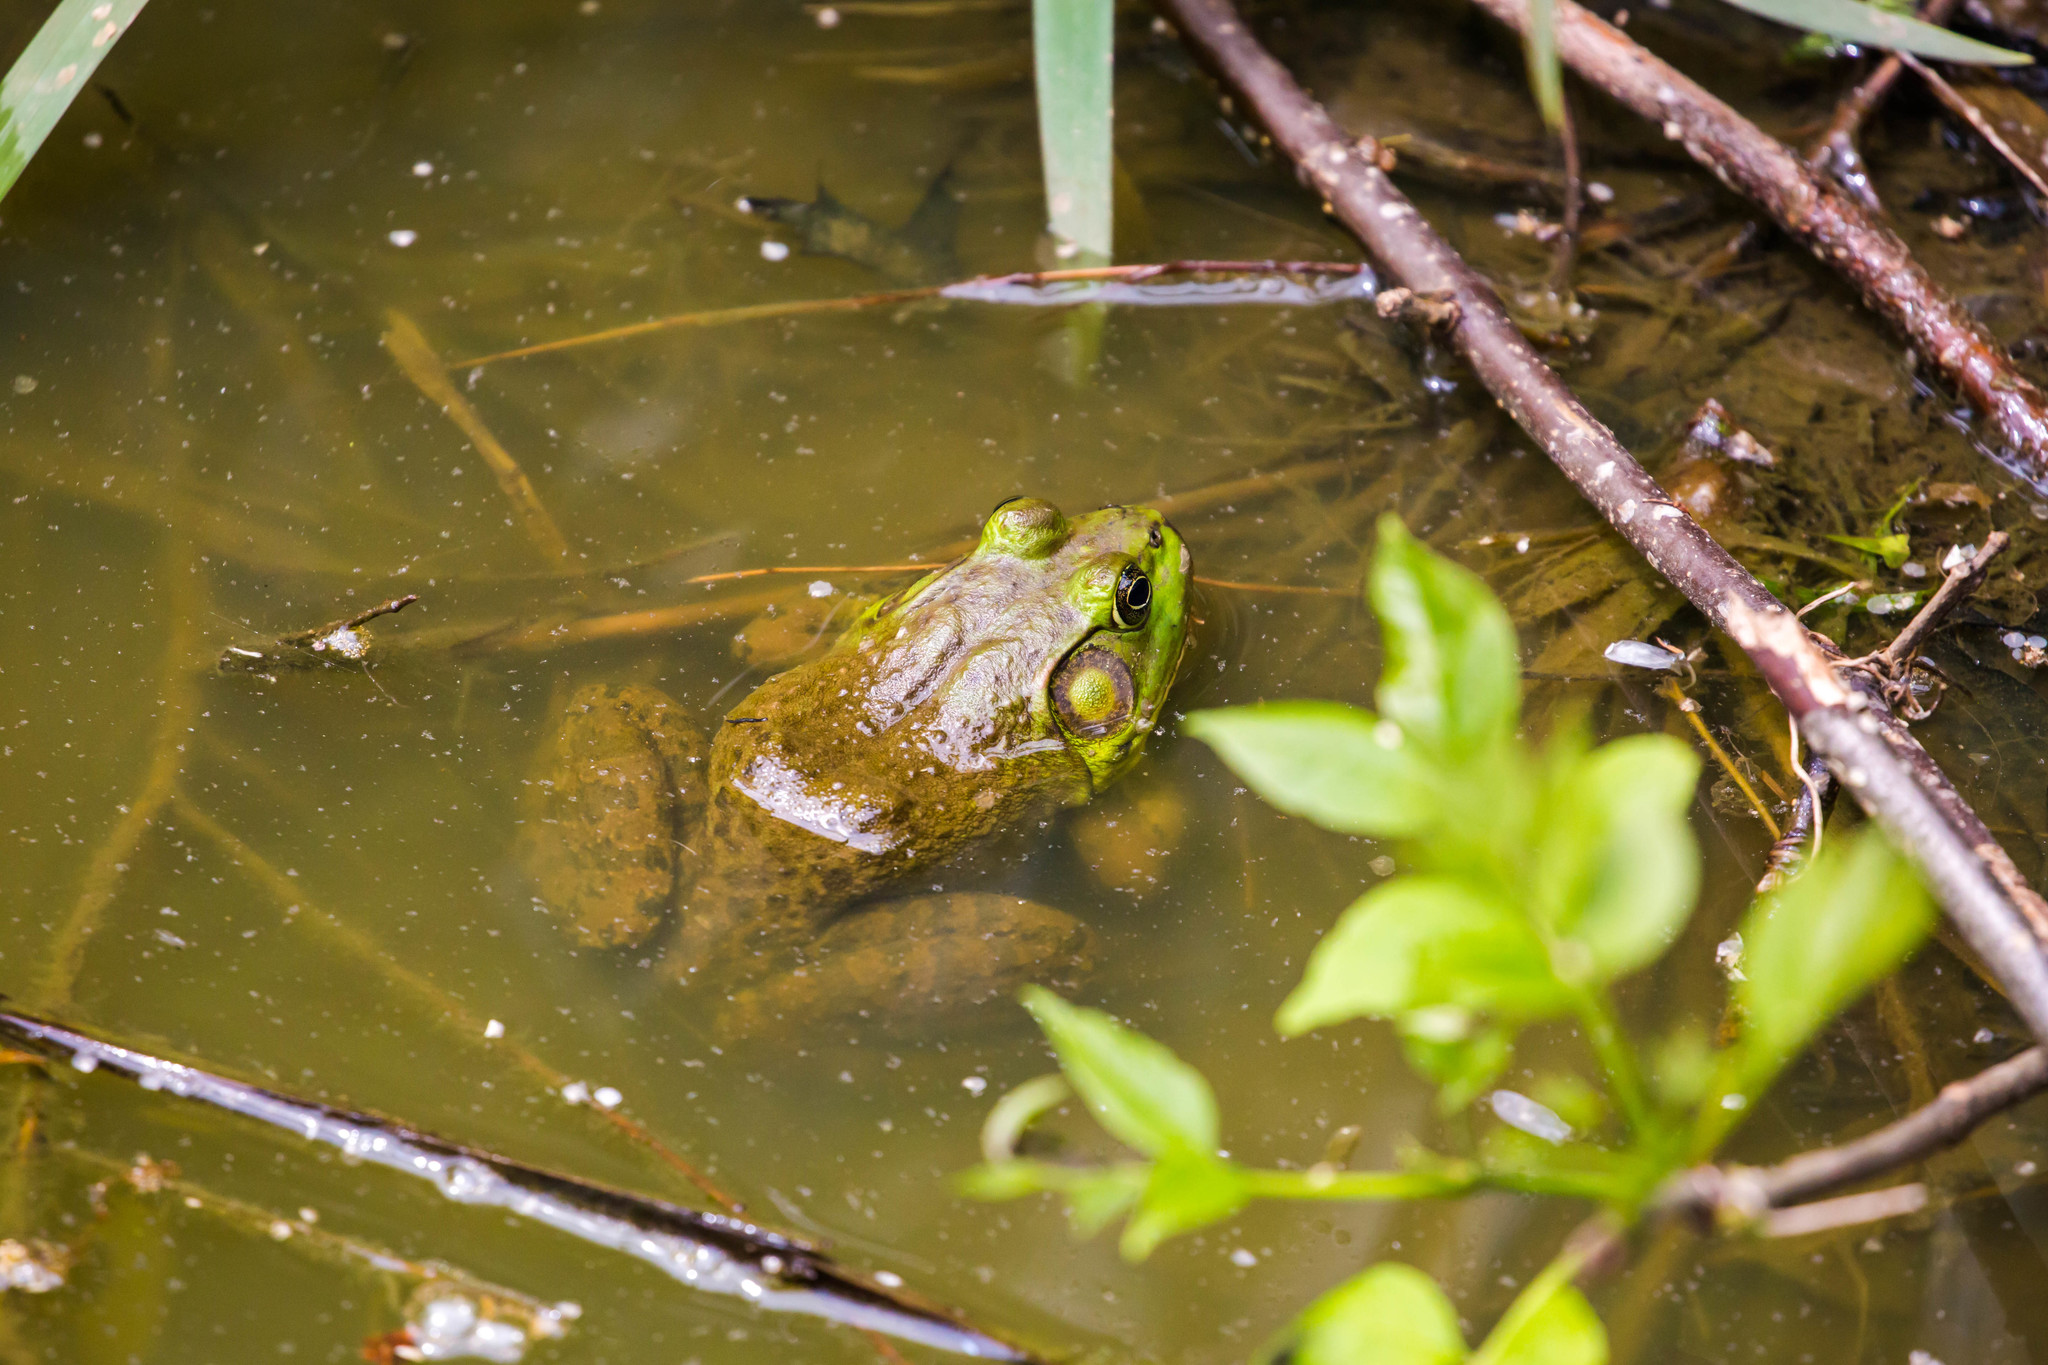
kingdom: Animalia
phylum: Chordata
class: Amphibia
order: Anura
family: Ranidae
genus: Lithobates
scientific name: Lithobates catesbeianus
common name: American bullfrog
